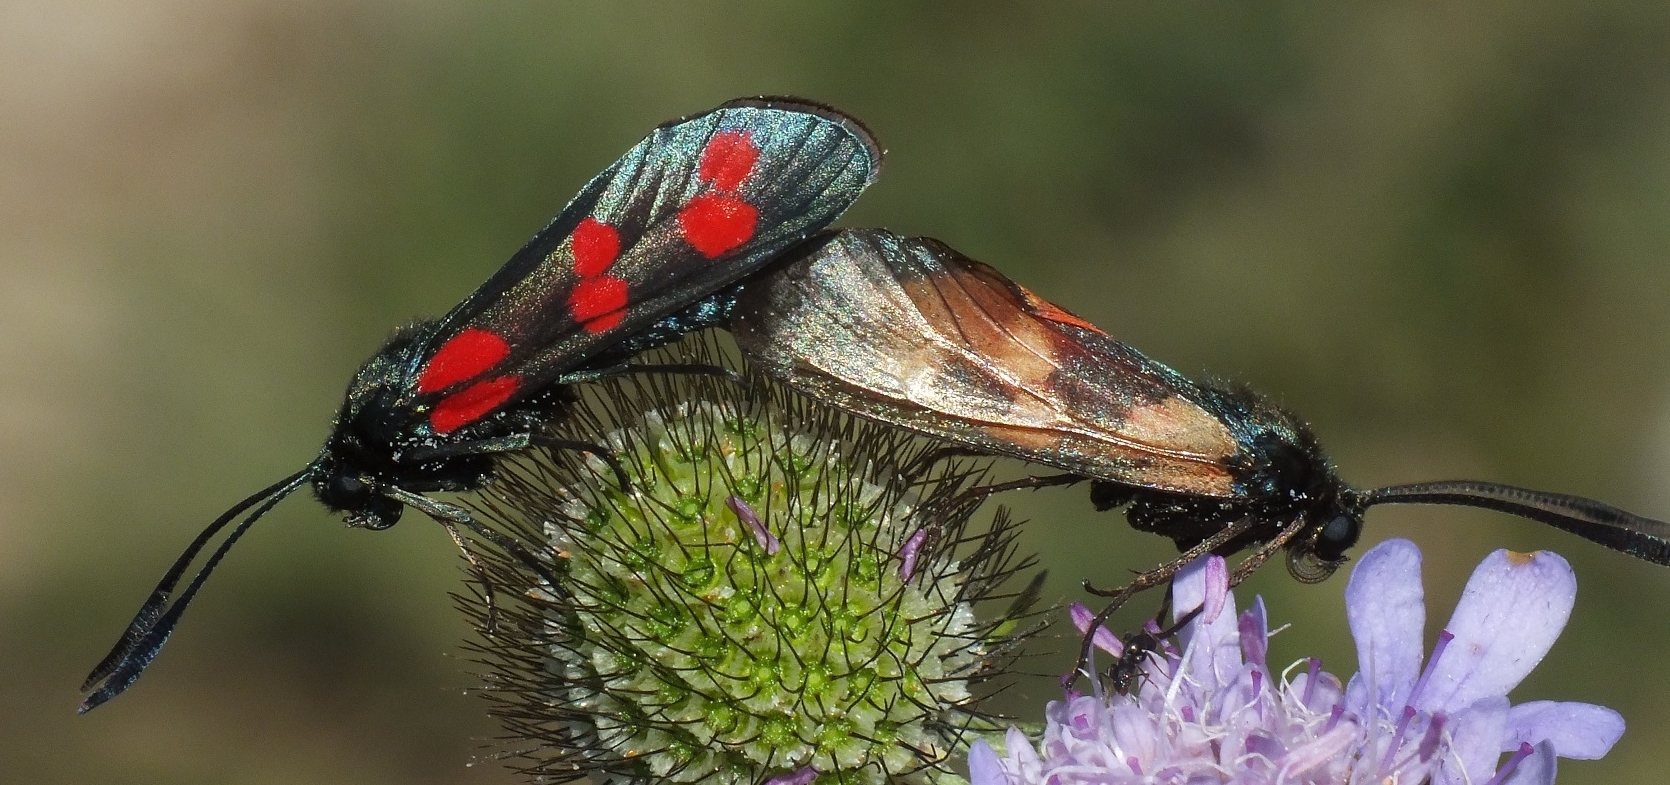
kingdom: Animalia
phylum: Arthropoda
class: Insecta
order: Lepidoptera
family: Zygaenidae
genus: Zygaena
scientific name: Zygaena filipendulae
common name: Six-spot burnet
